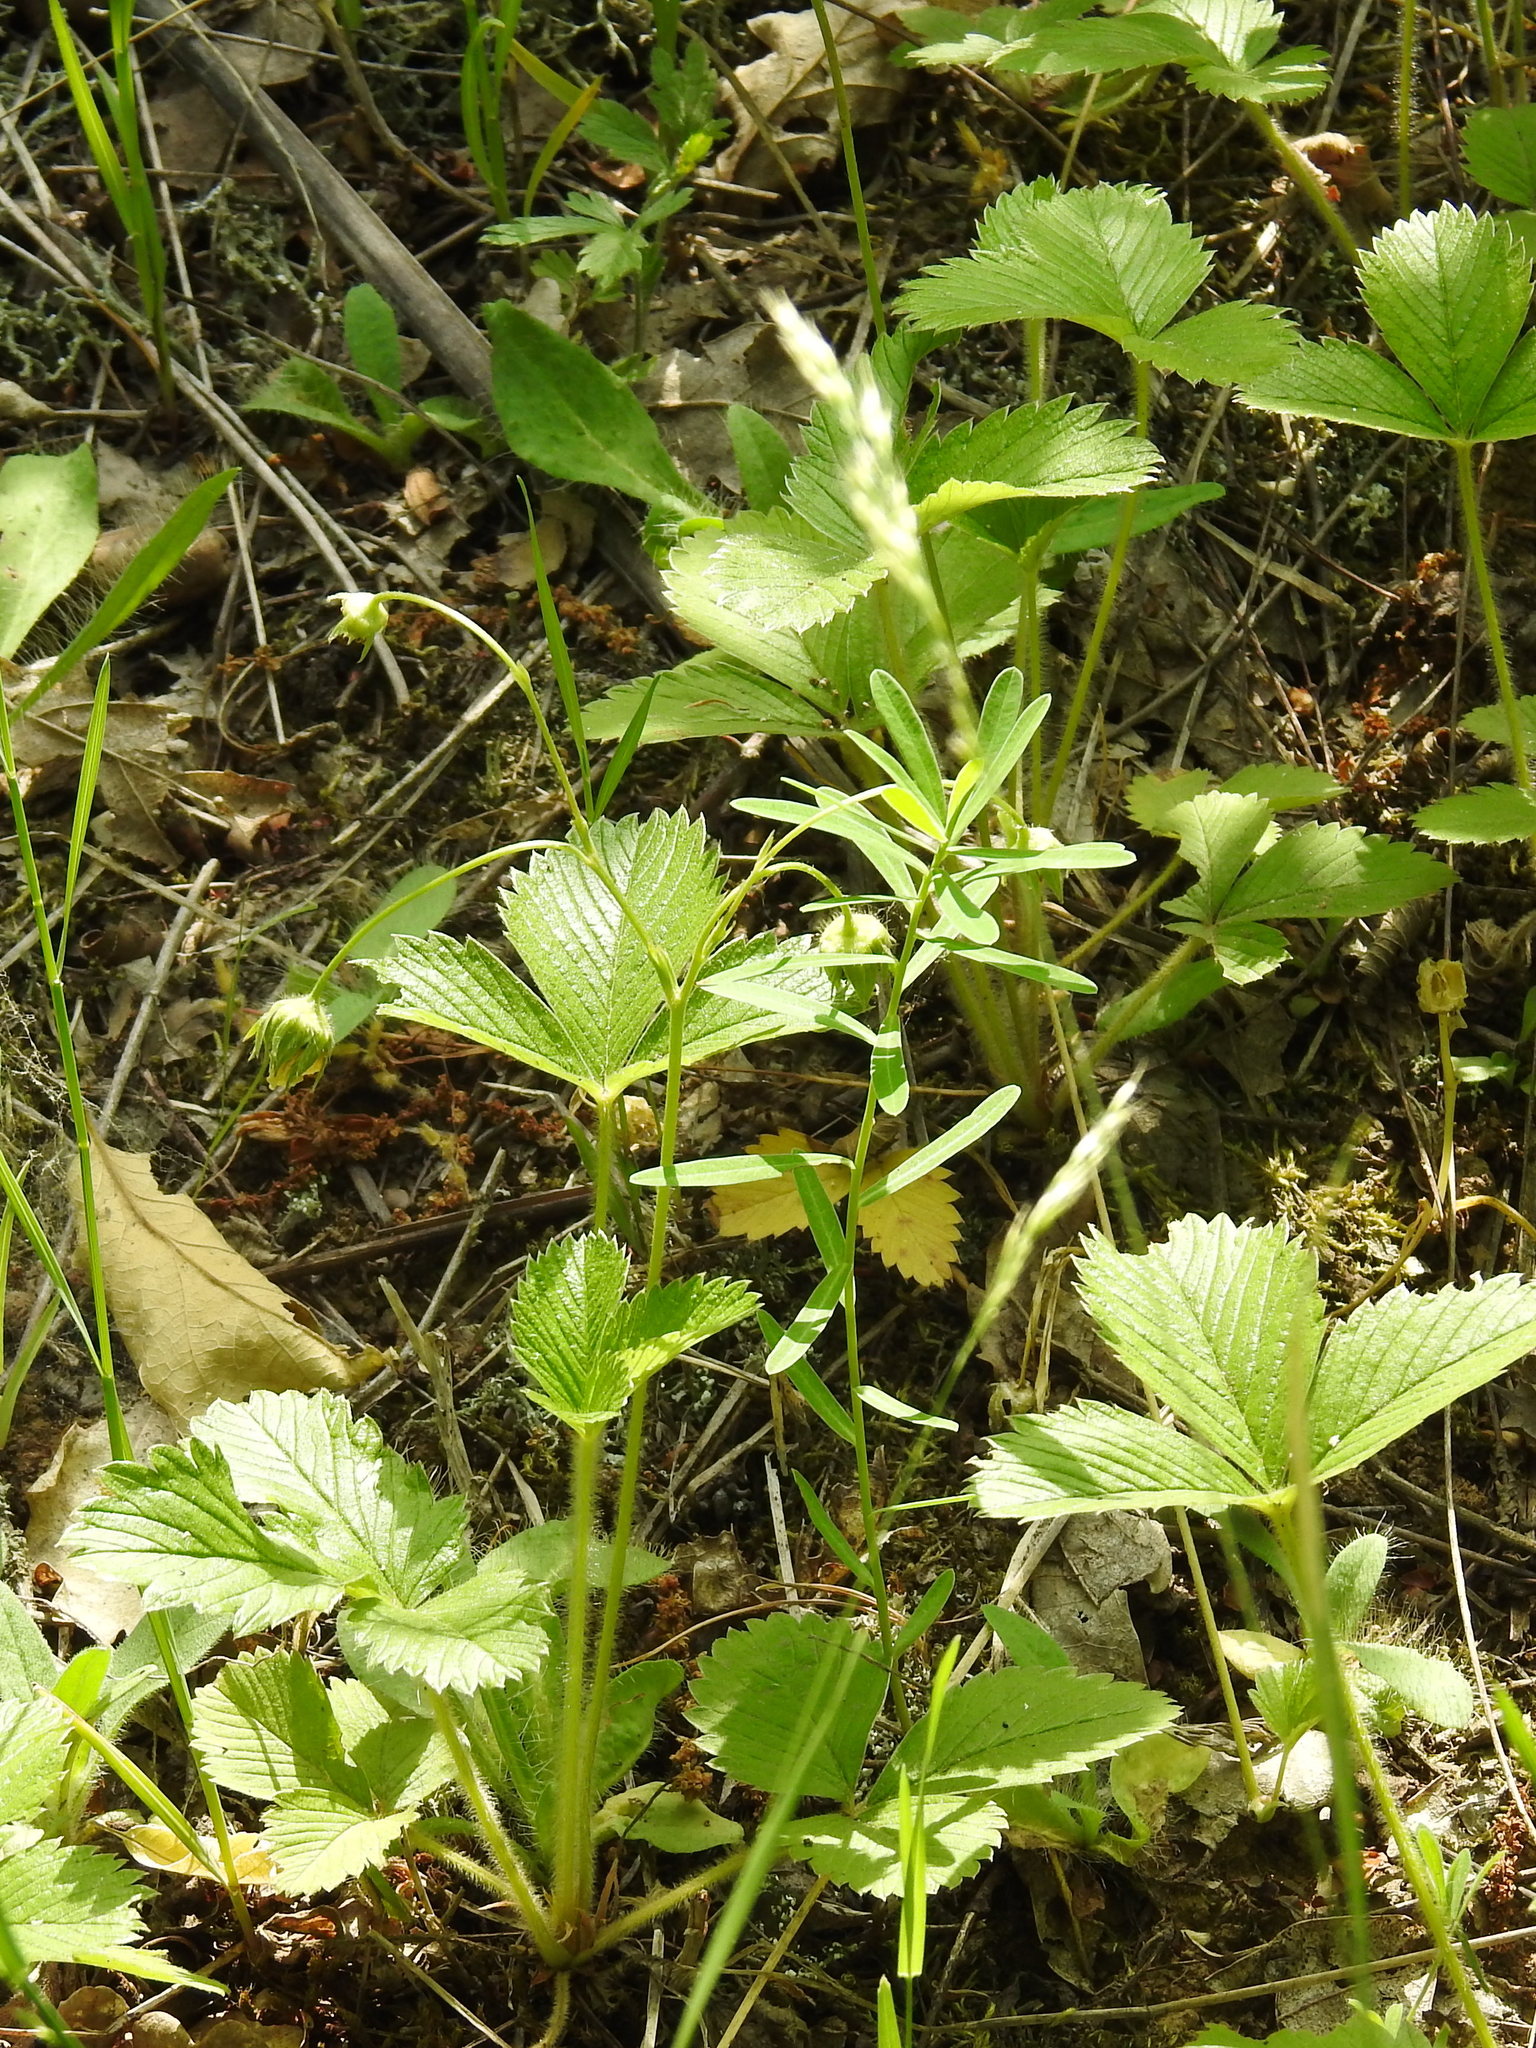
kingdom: Plantae
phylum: Tracheophyta
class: Magnoliopsida
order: Rosales
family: Rosaceae
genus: Fragaria
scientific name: Fragaria viridis
